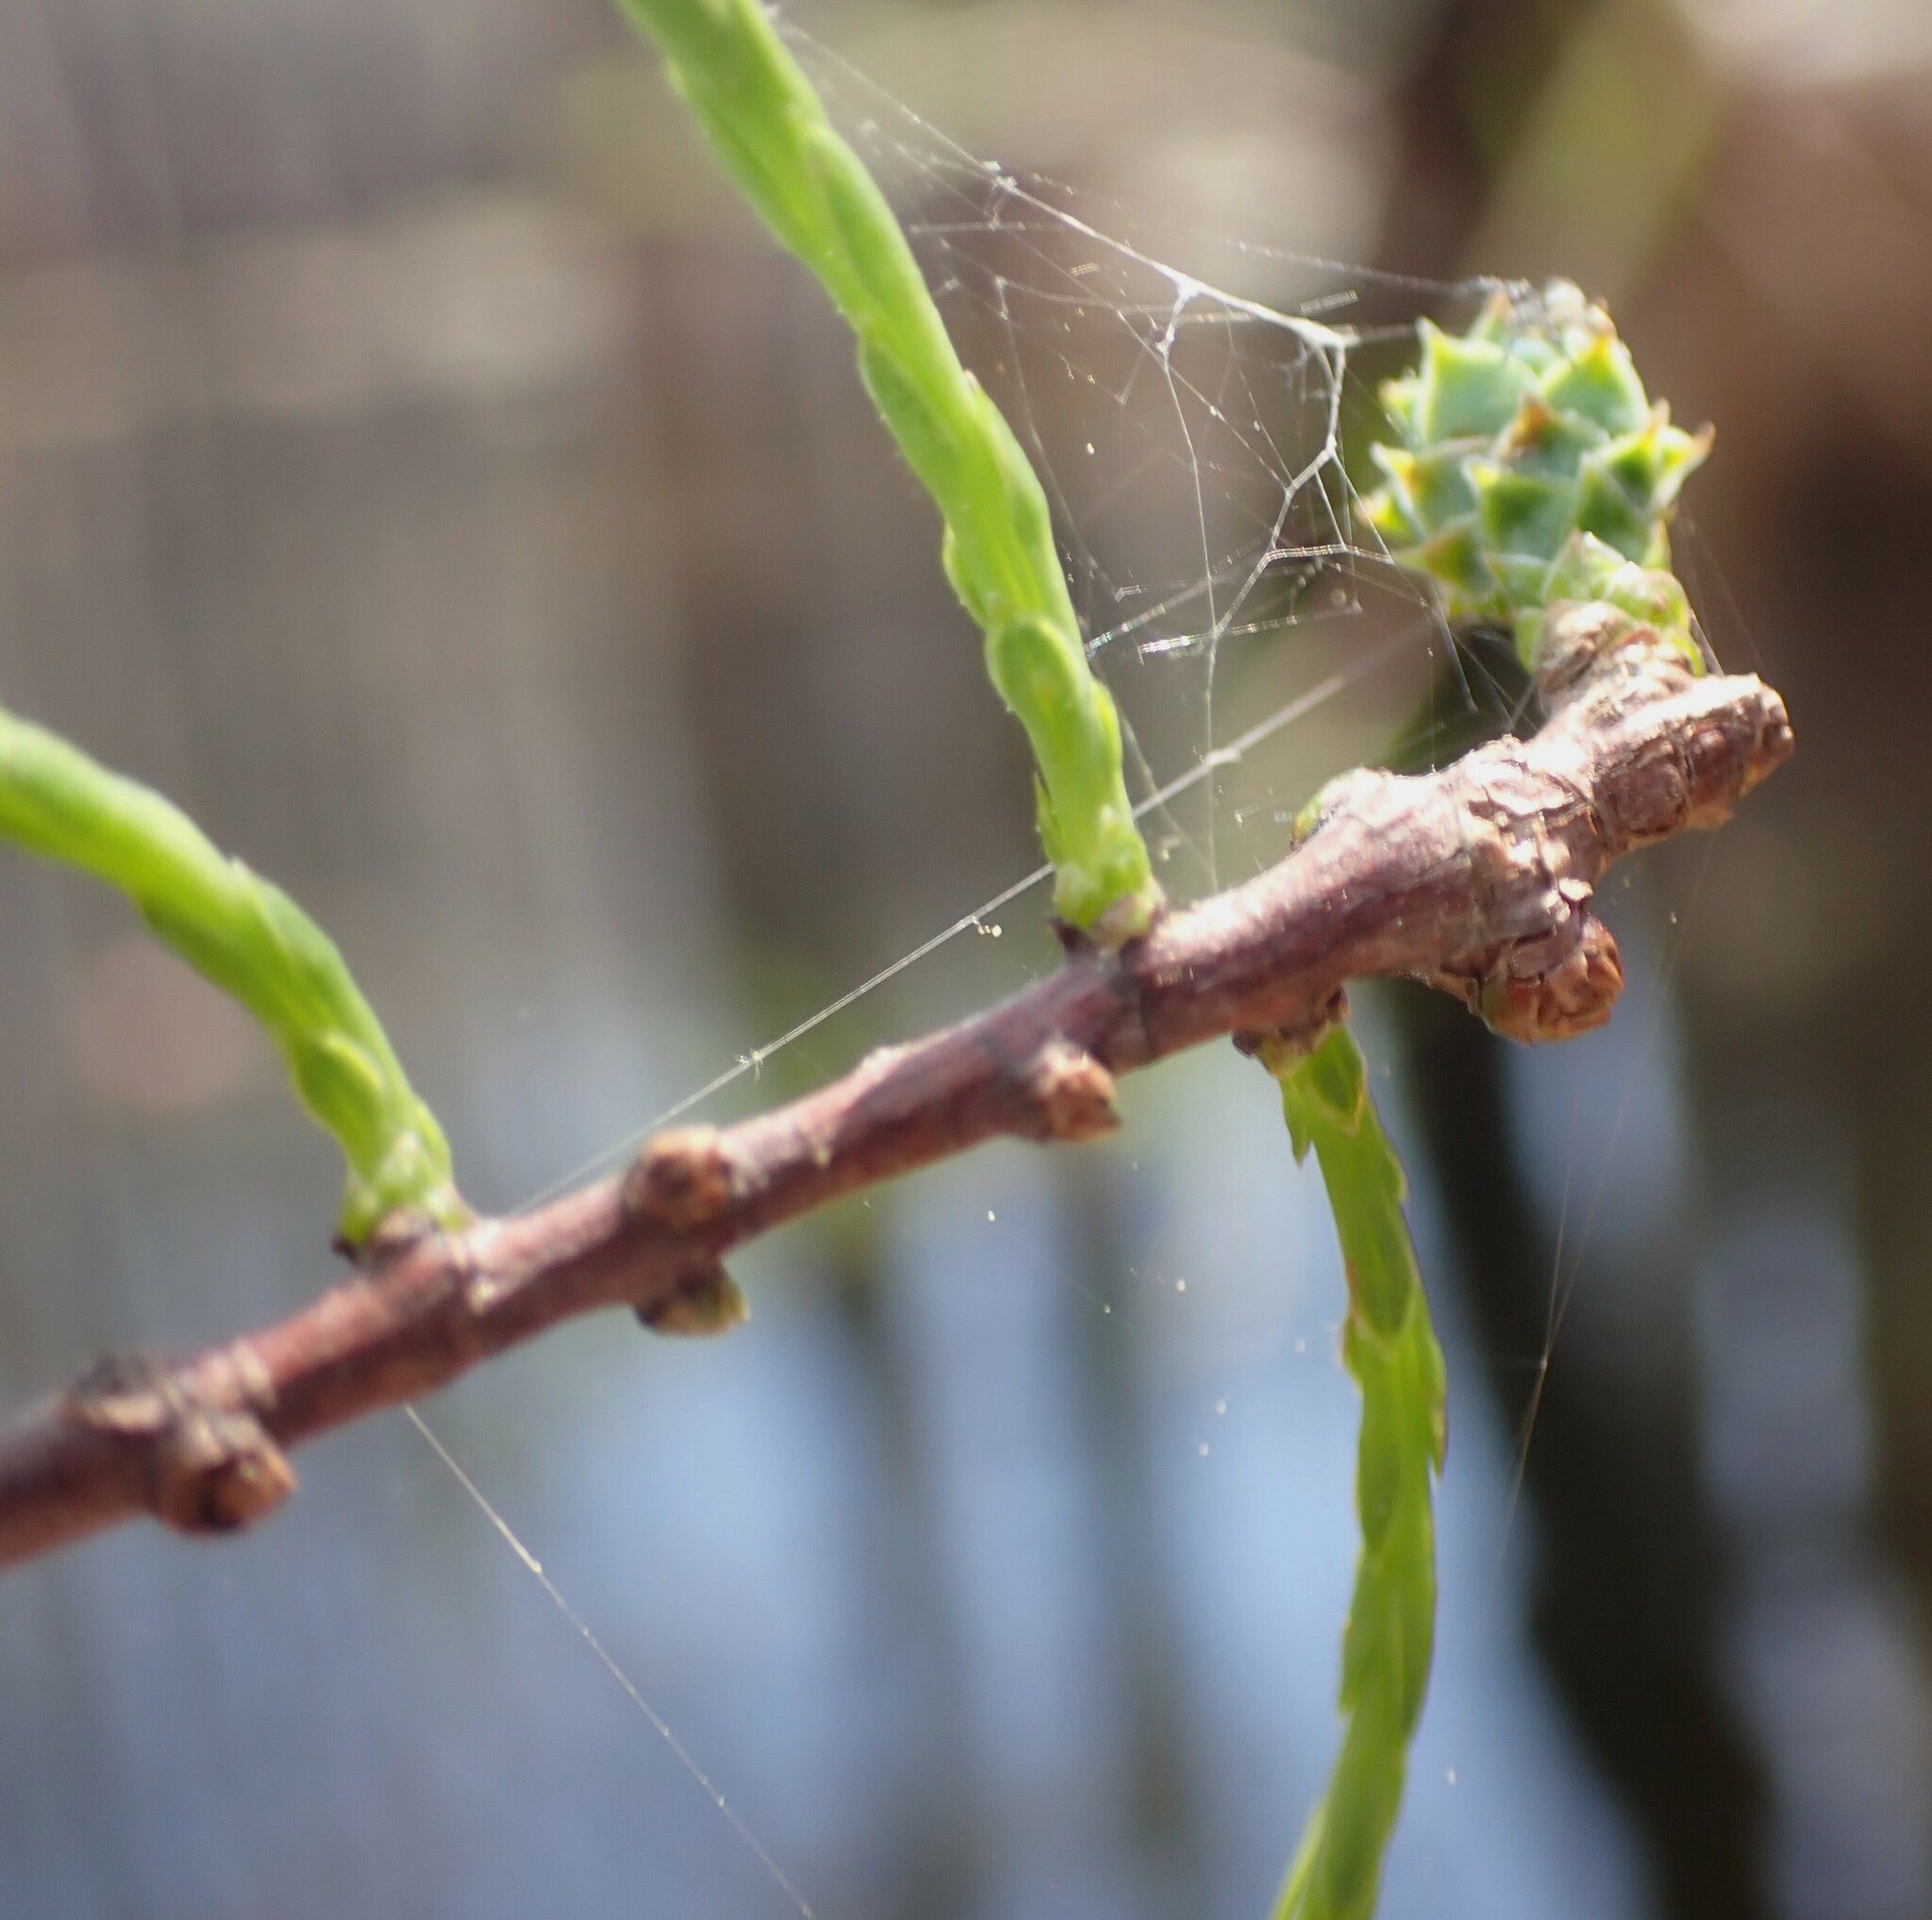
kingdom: Plantae
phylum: Tracheophyta
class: Pinopsida
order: Pinales
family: Cupressaceae
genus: Taxodium
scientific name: Taxodium distichum
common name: Bald cypress
